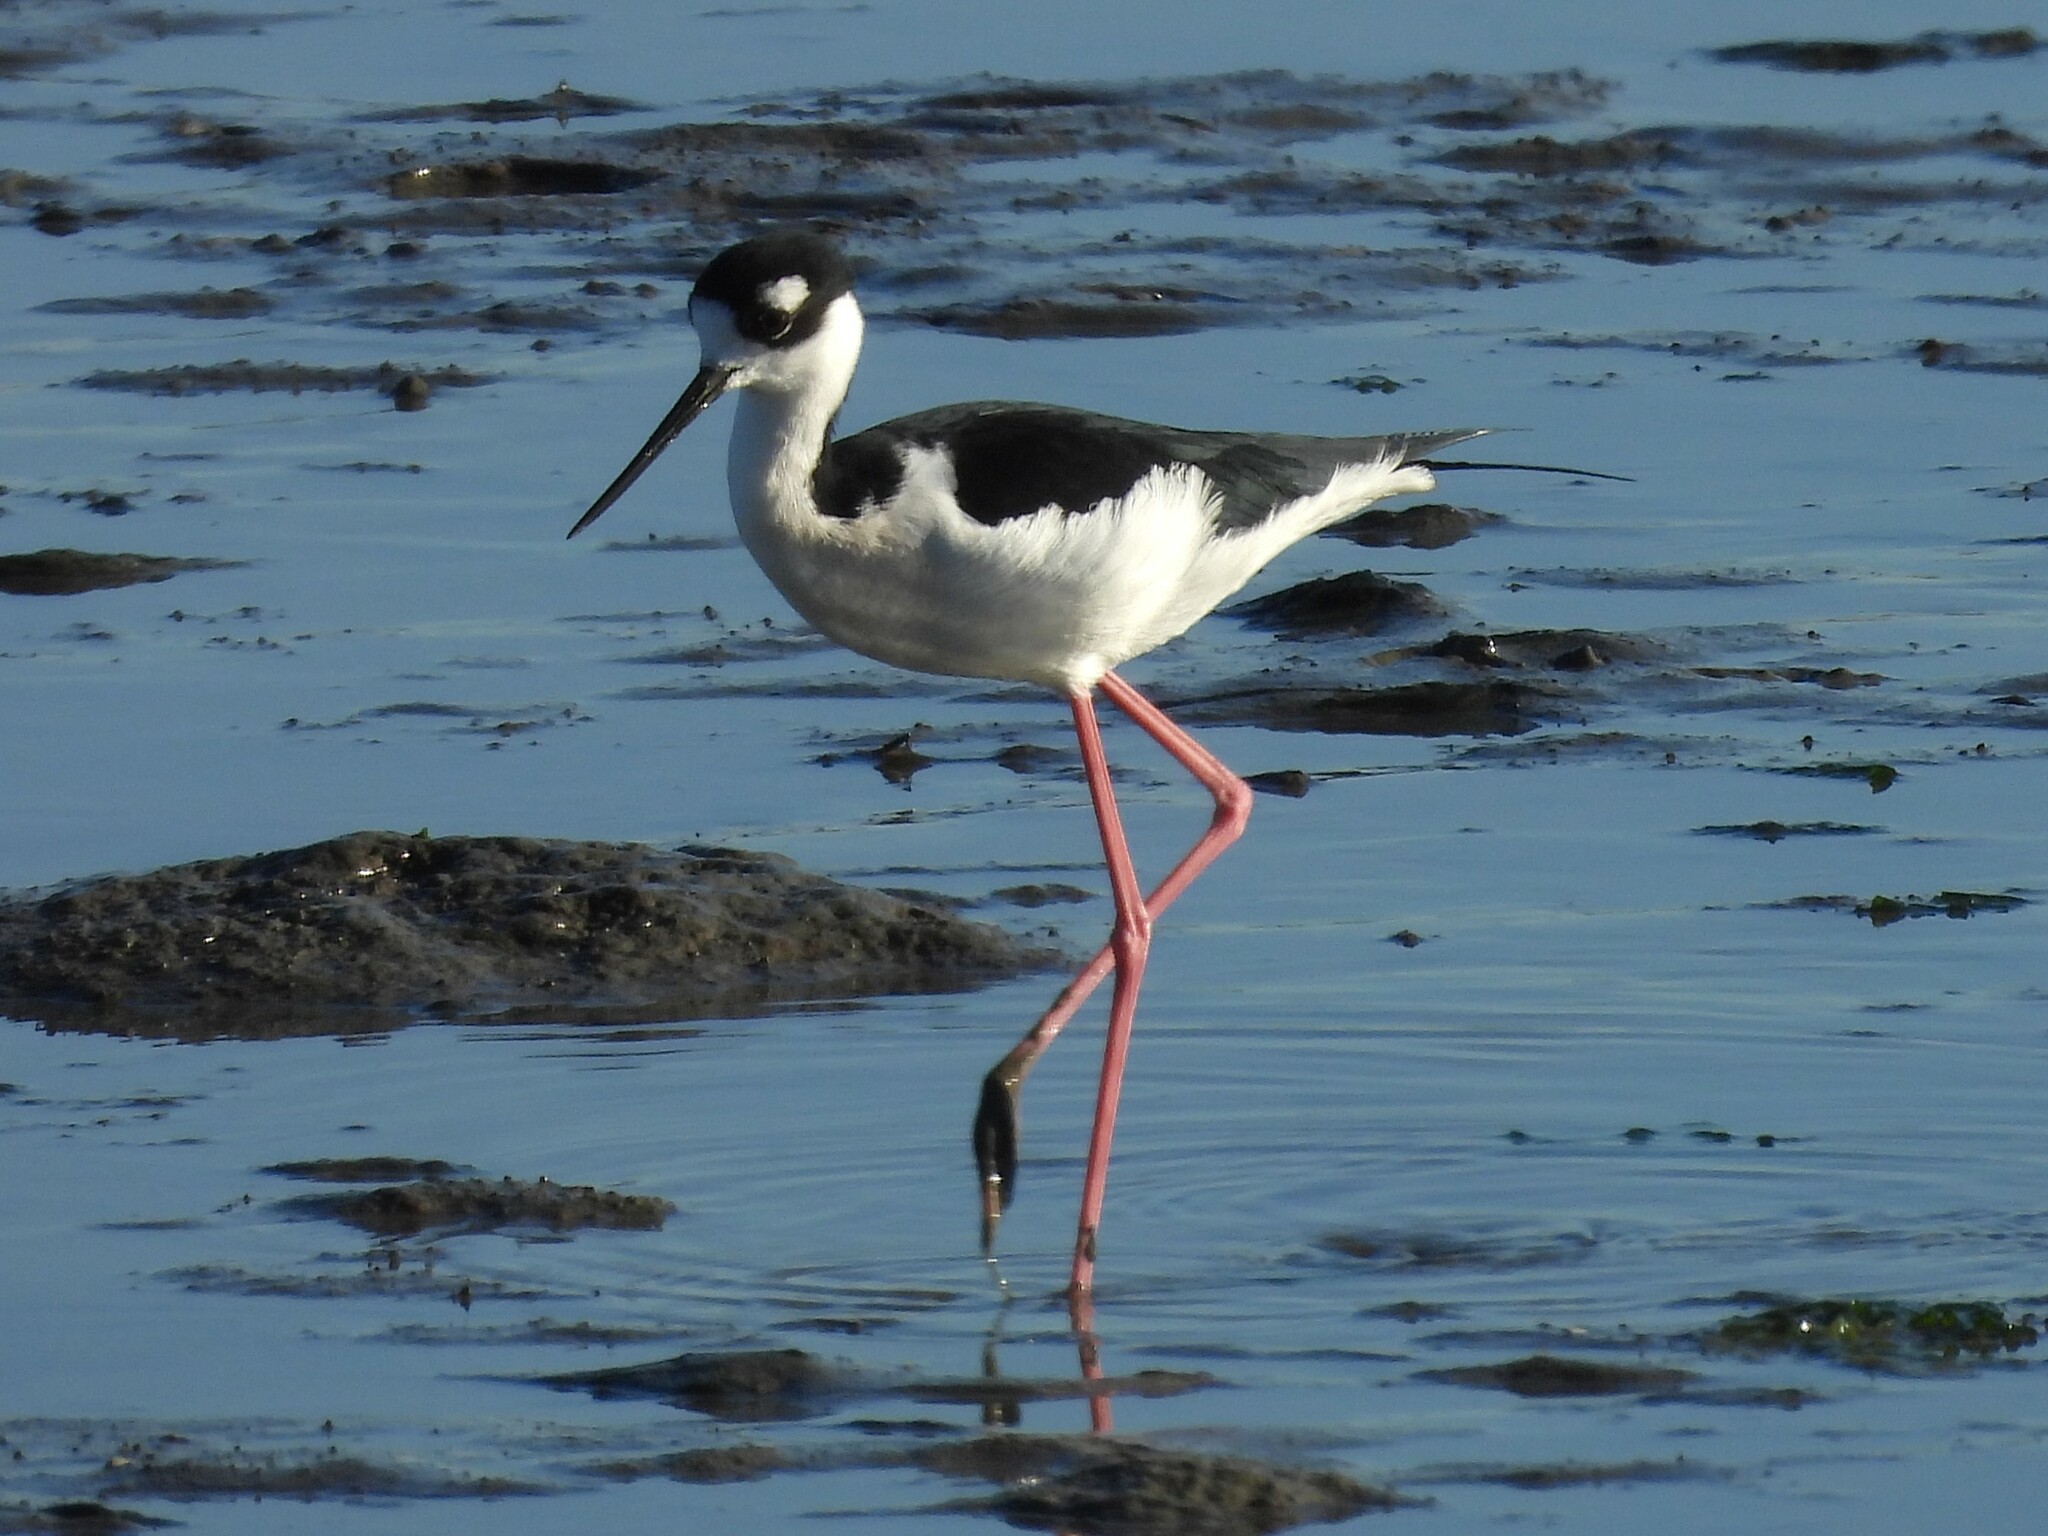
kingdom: Animalia
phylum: Chordata
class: Aves
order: Charadriiformes
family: Recurvirostridae
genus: Himantopus
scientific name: Himantopus mexicanus
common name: Black-necked stilt
